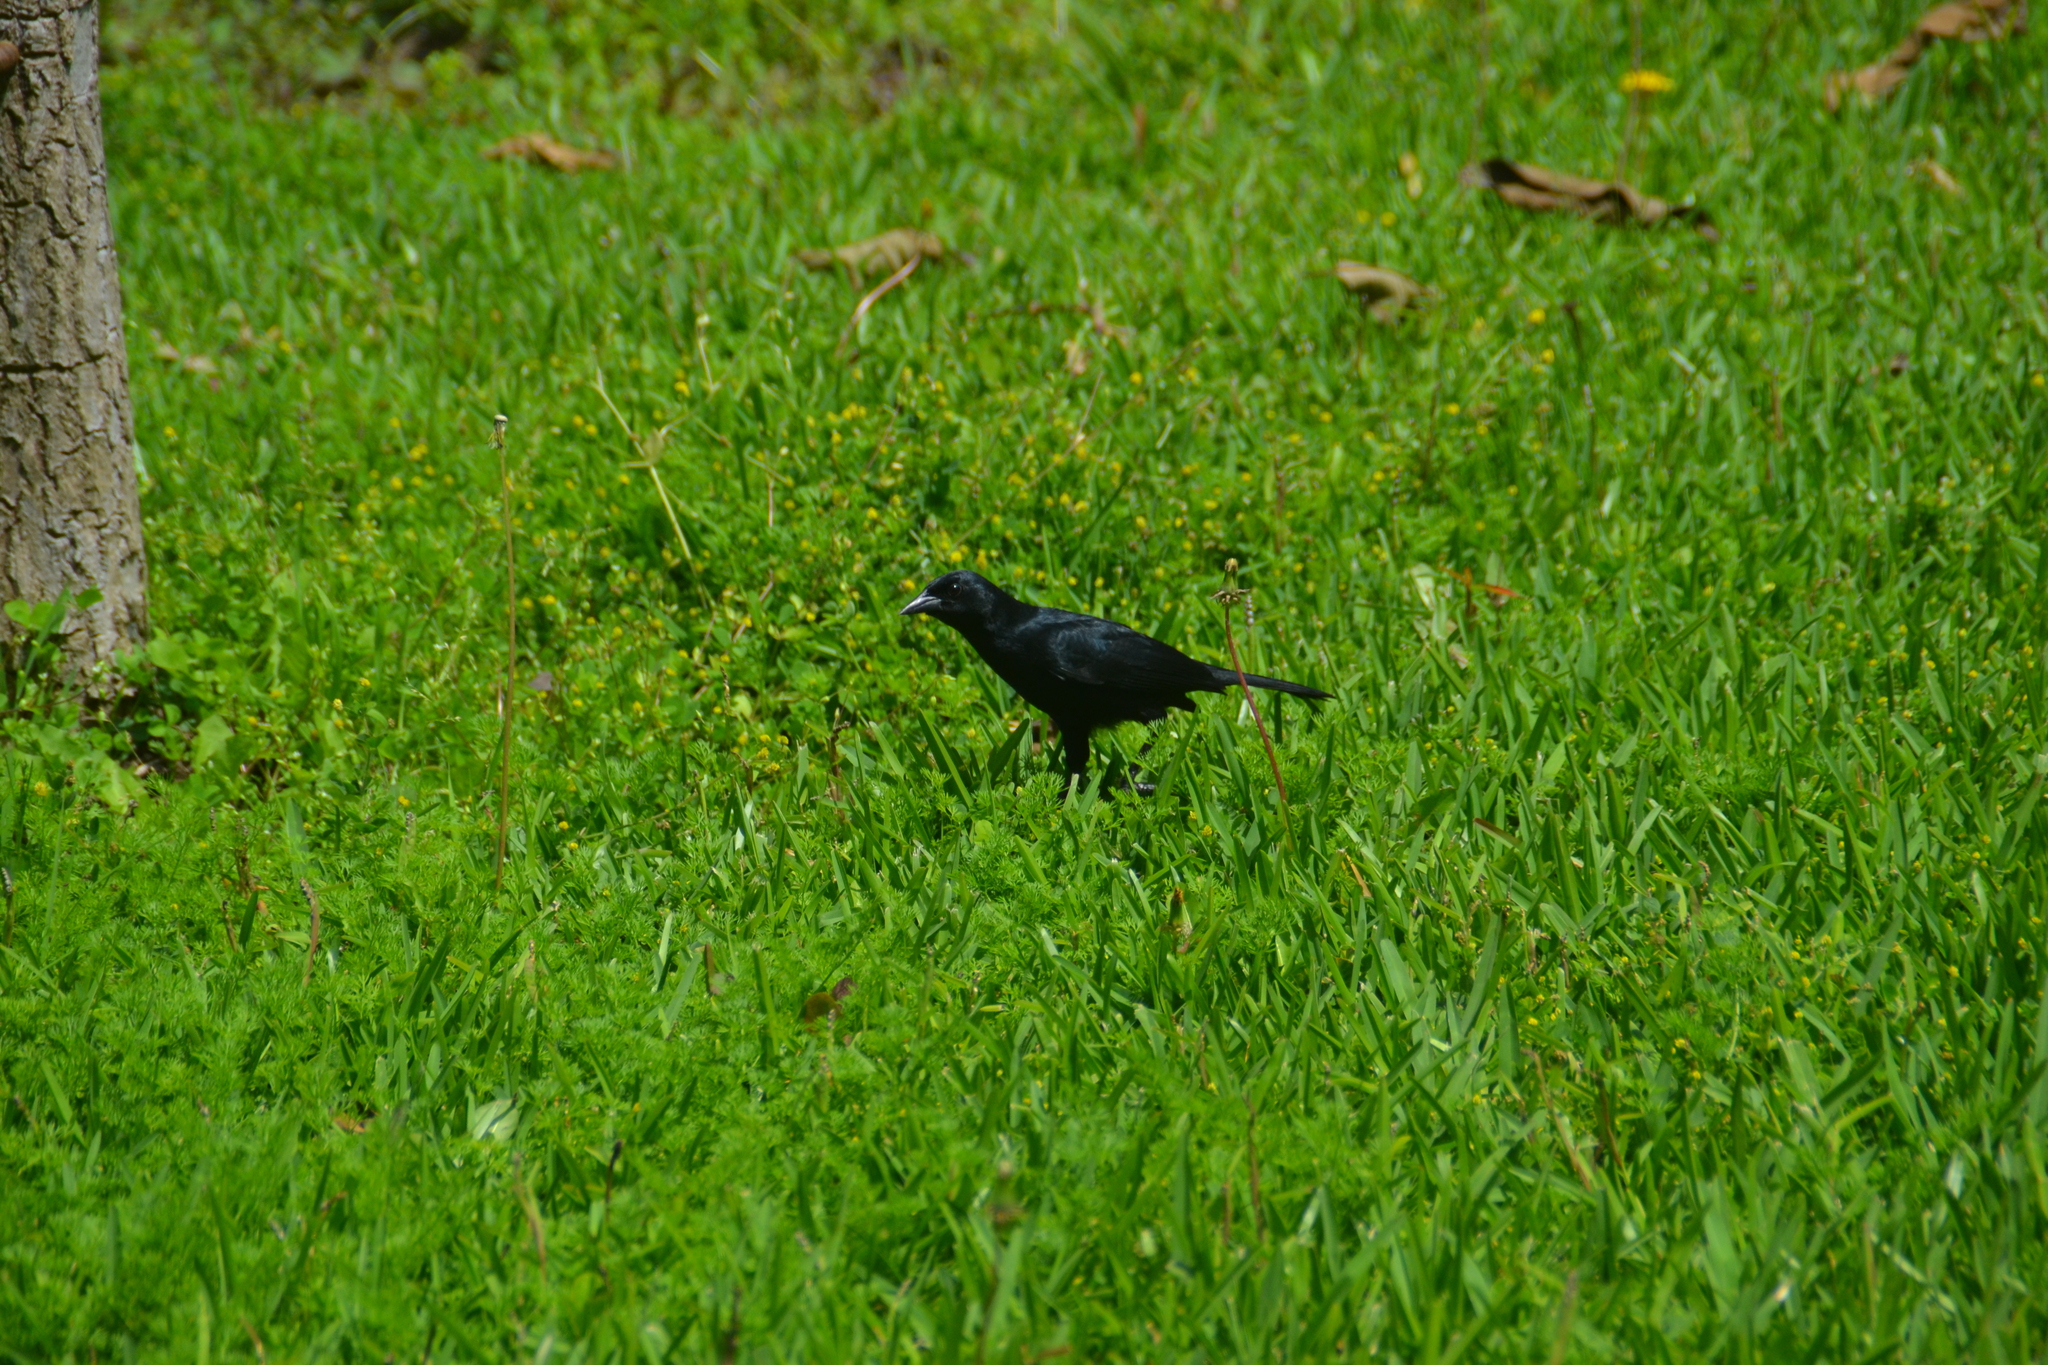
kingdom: Animalia
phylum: Chordata
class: Aves
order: Passeriformes
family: Icteridae
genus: Molothrus
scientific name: Molothrus bonariensis
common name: Shiny cowbird
